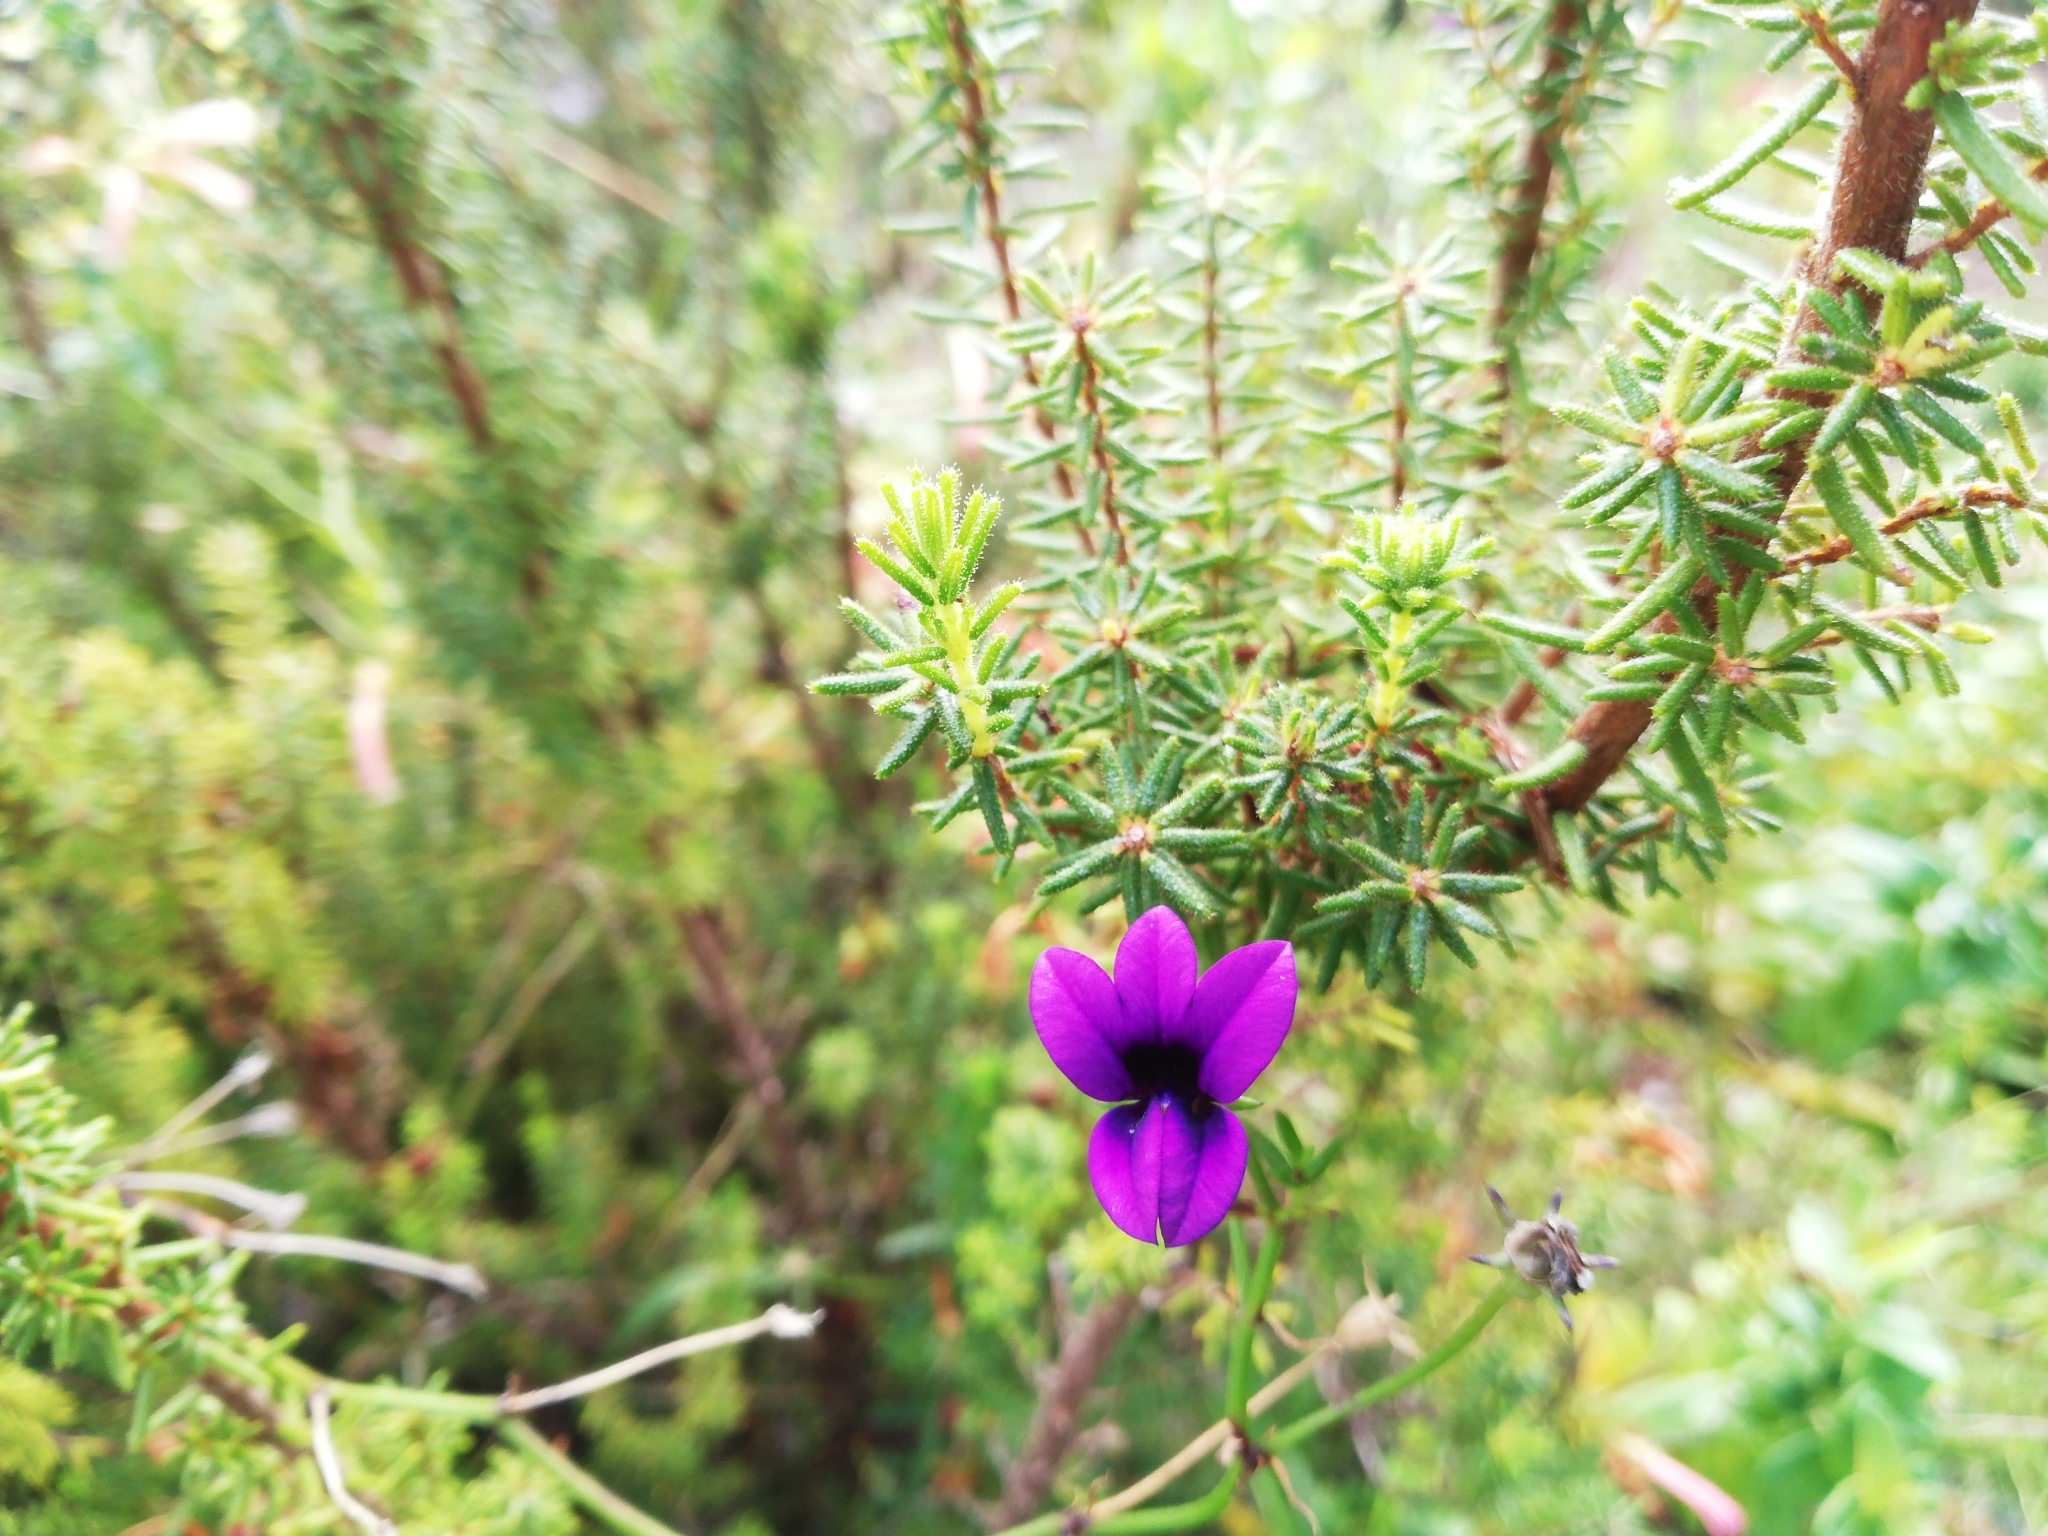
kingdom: Plantae
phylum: Tracheophyta
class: Magnoliopsida
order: Asterales
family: Campanulaceae
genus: Monopsis
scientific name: Monopsis simplex
